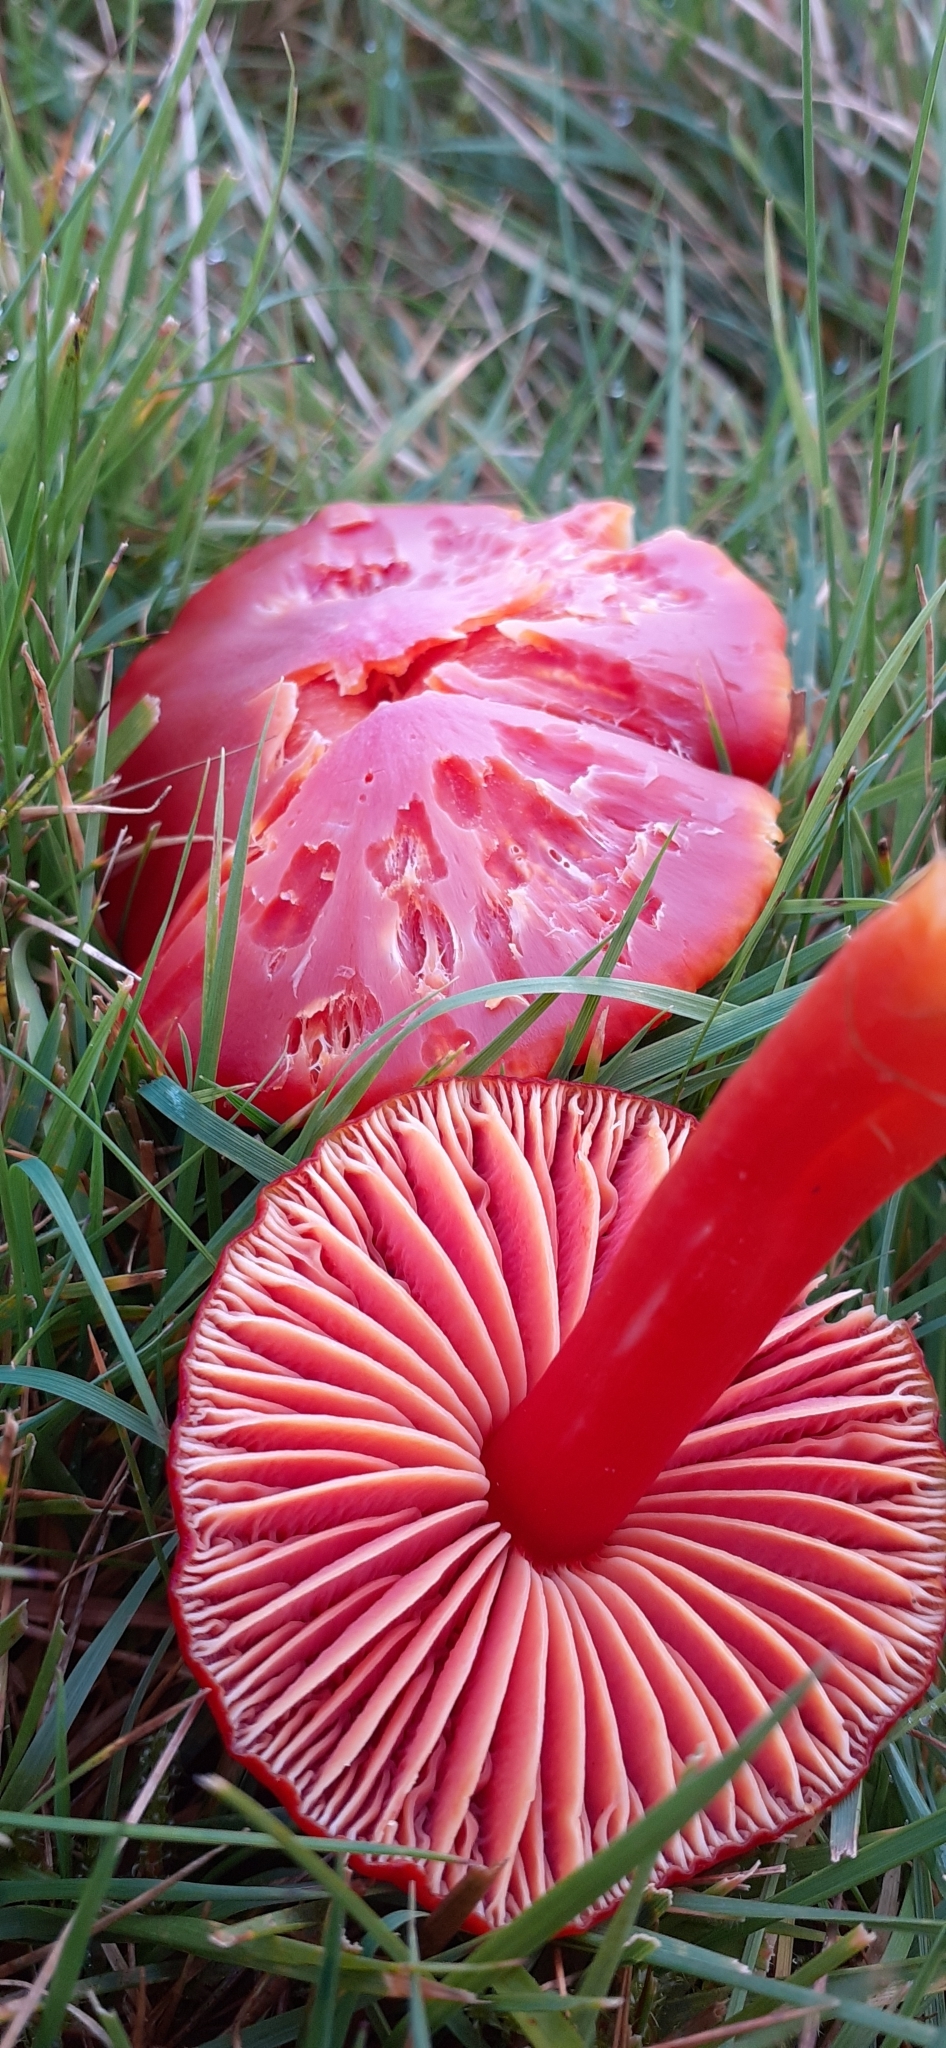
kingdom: Fungi
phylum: Basidiomycota
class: Agaricomycetes
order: Agaricales
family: Hygrophoraceae
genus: Hygrocybe
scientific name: Hygrocybe splendidissima
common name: Splendid waxcap
